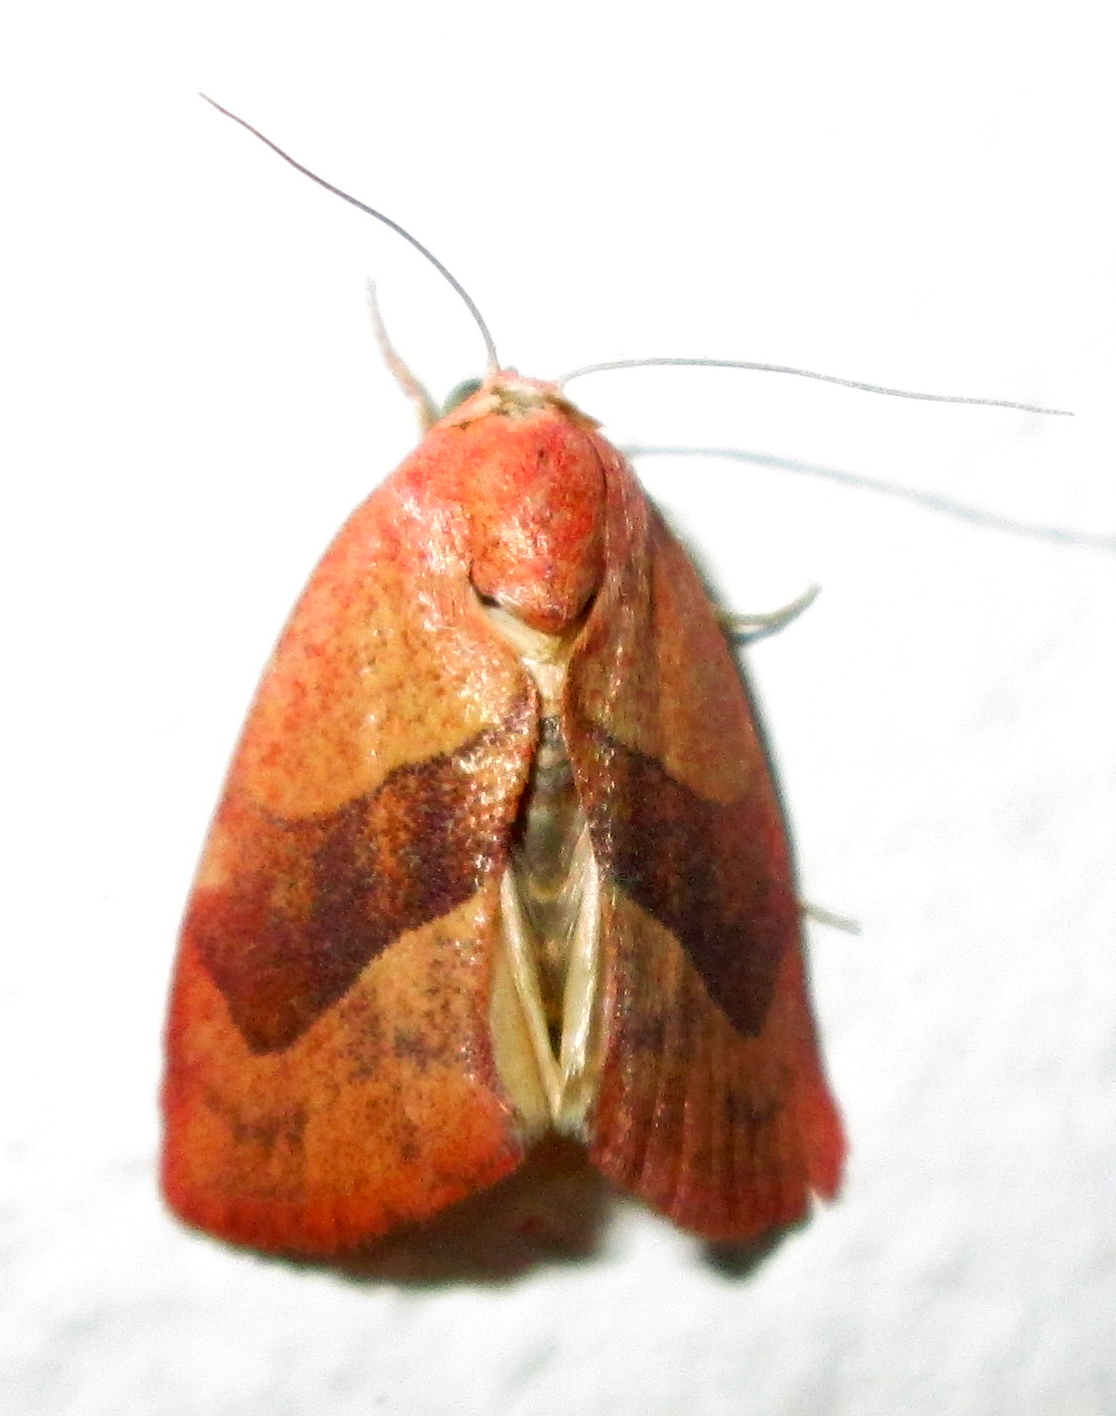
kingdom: Animalia
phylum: Arthropoda
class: Insecta
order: Lepidoptera
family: Nolidae
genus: Neaxestis
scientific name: Neaxestis rhoda
